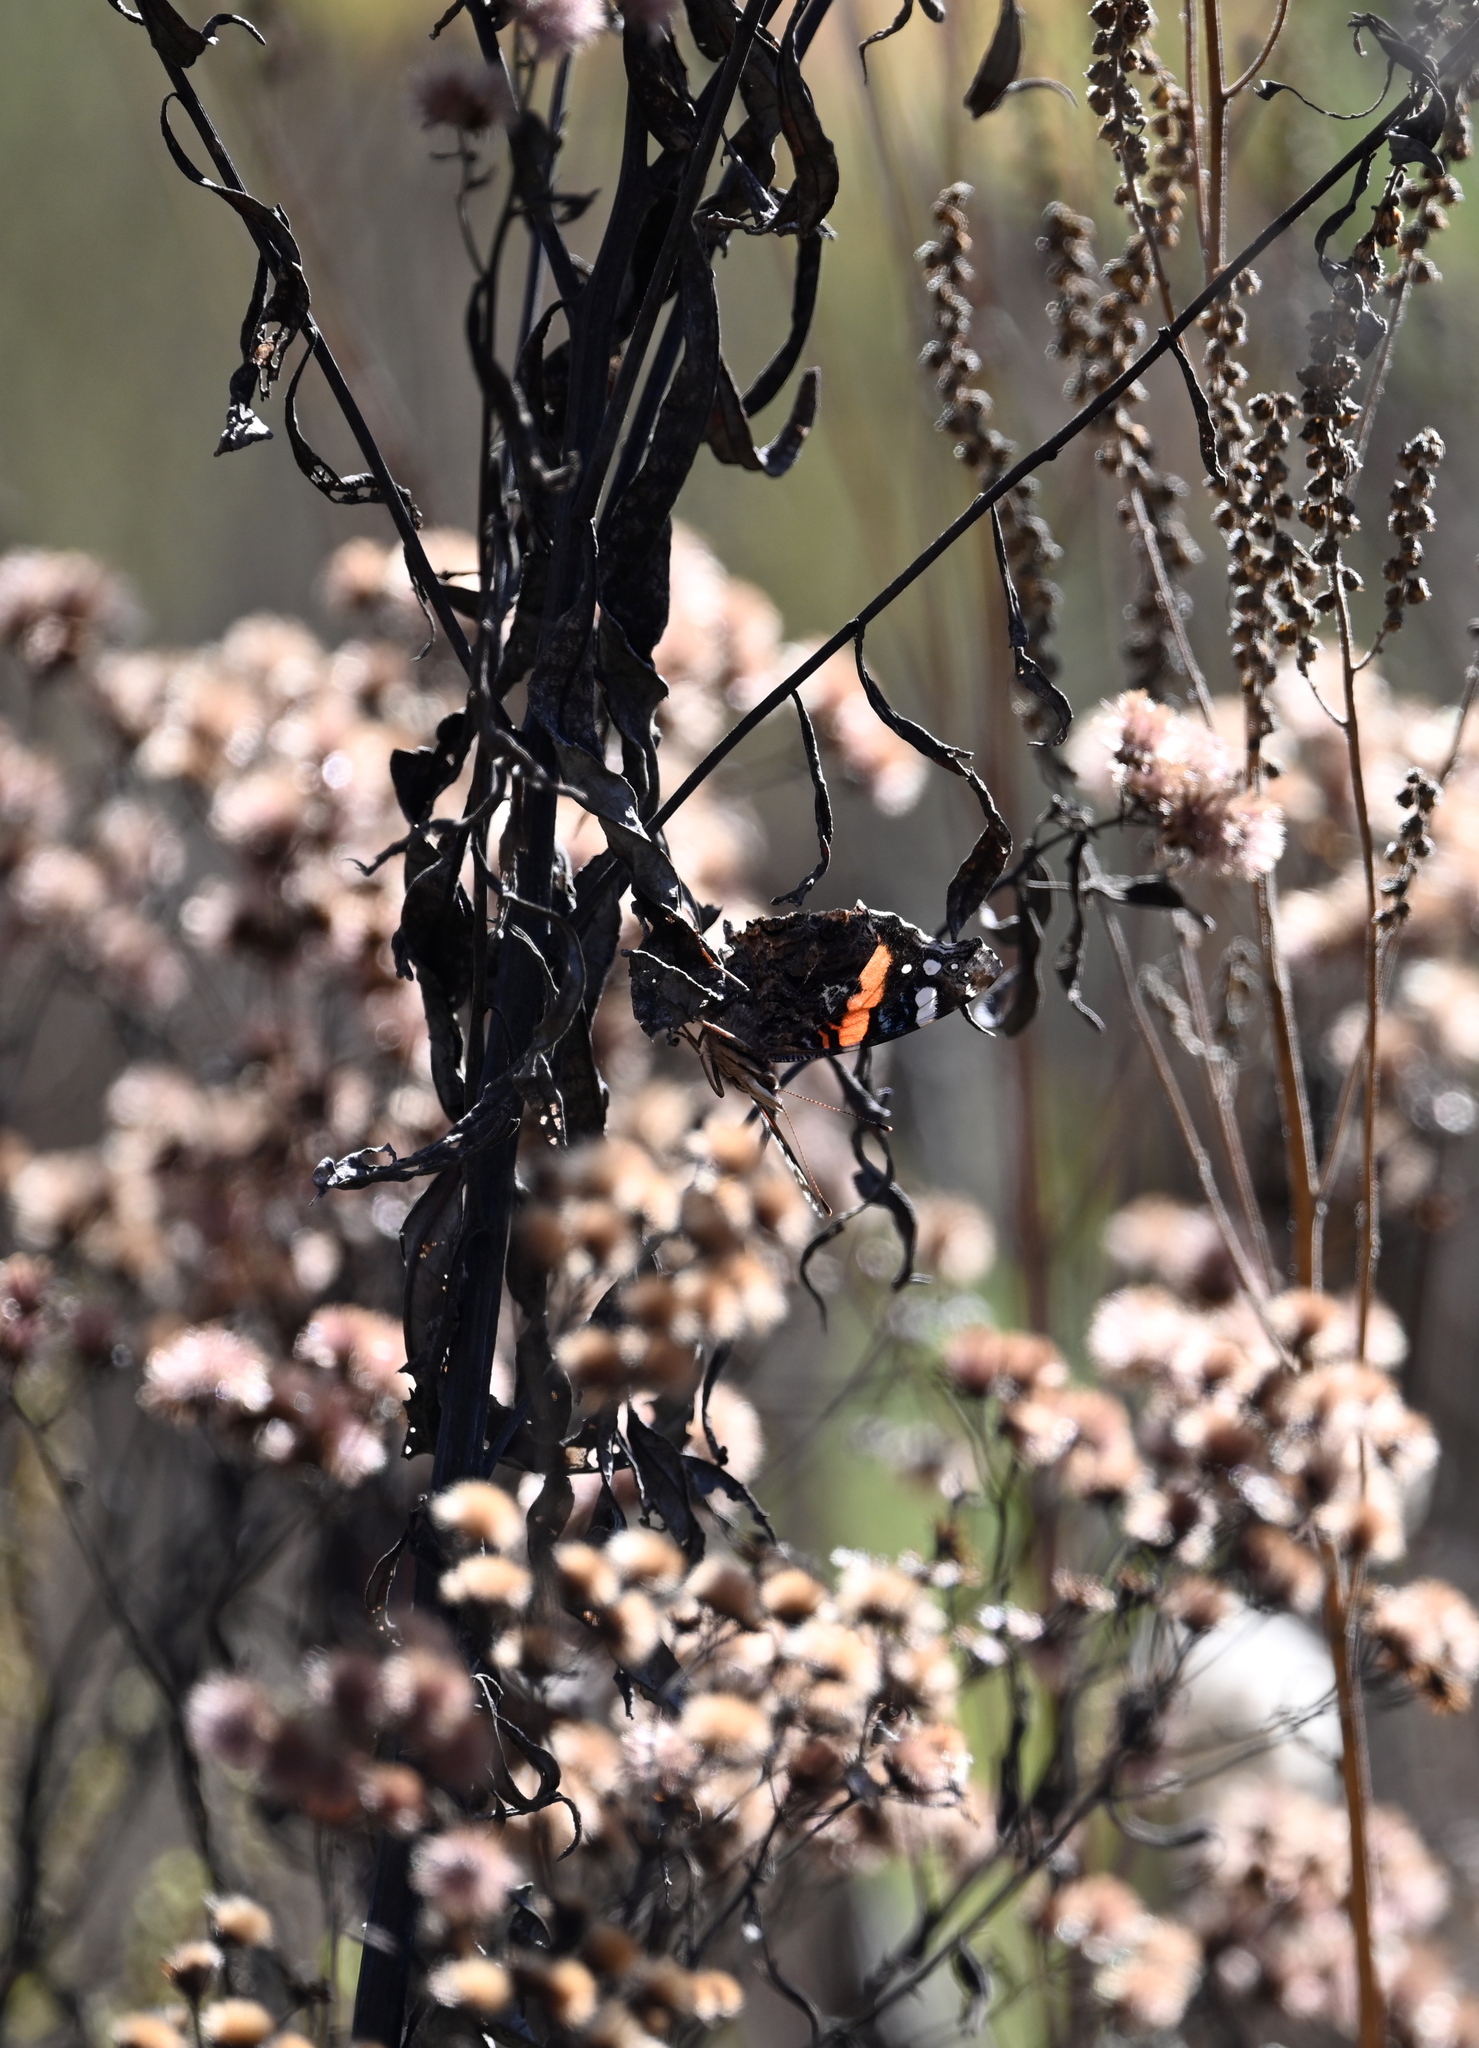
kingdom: Animalia
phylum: Arthropoda
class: Insecta
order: Lepidoptera
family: Nymphalidae
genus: Vanessa
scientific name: Vanessa atalanta
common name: Red admiral
